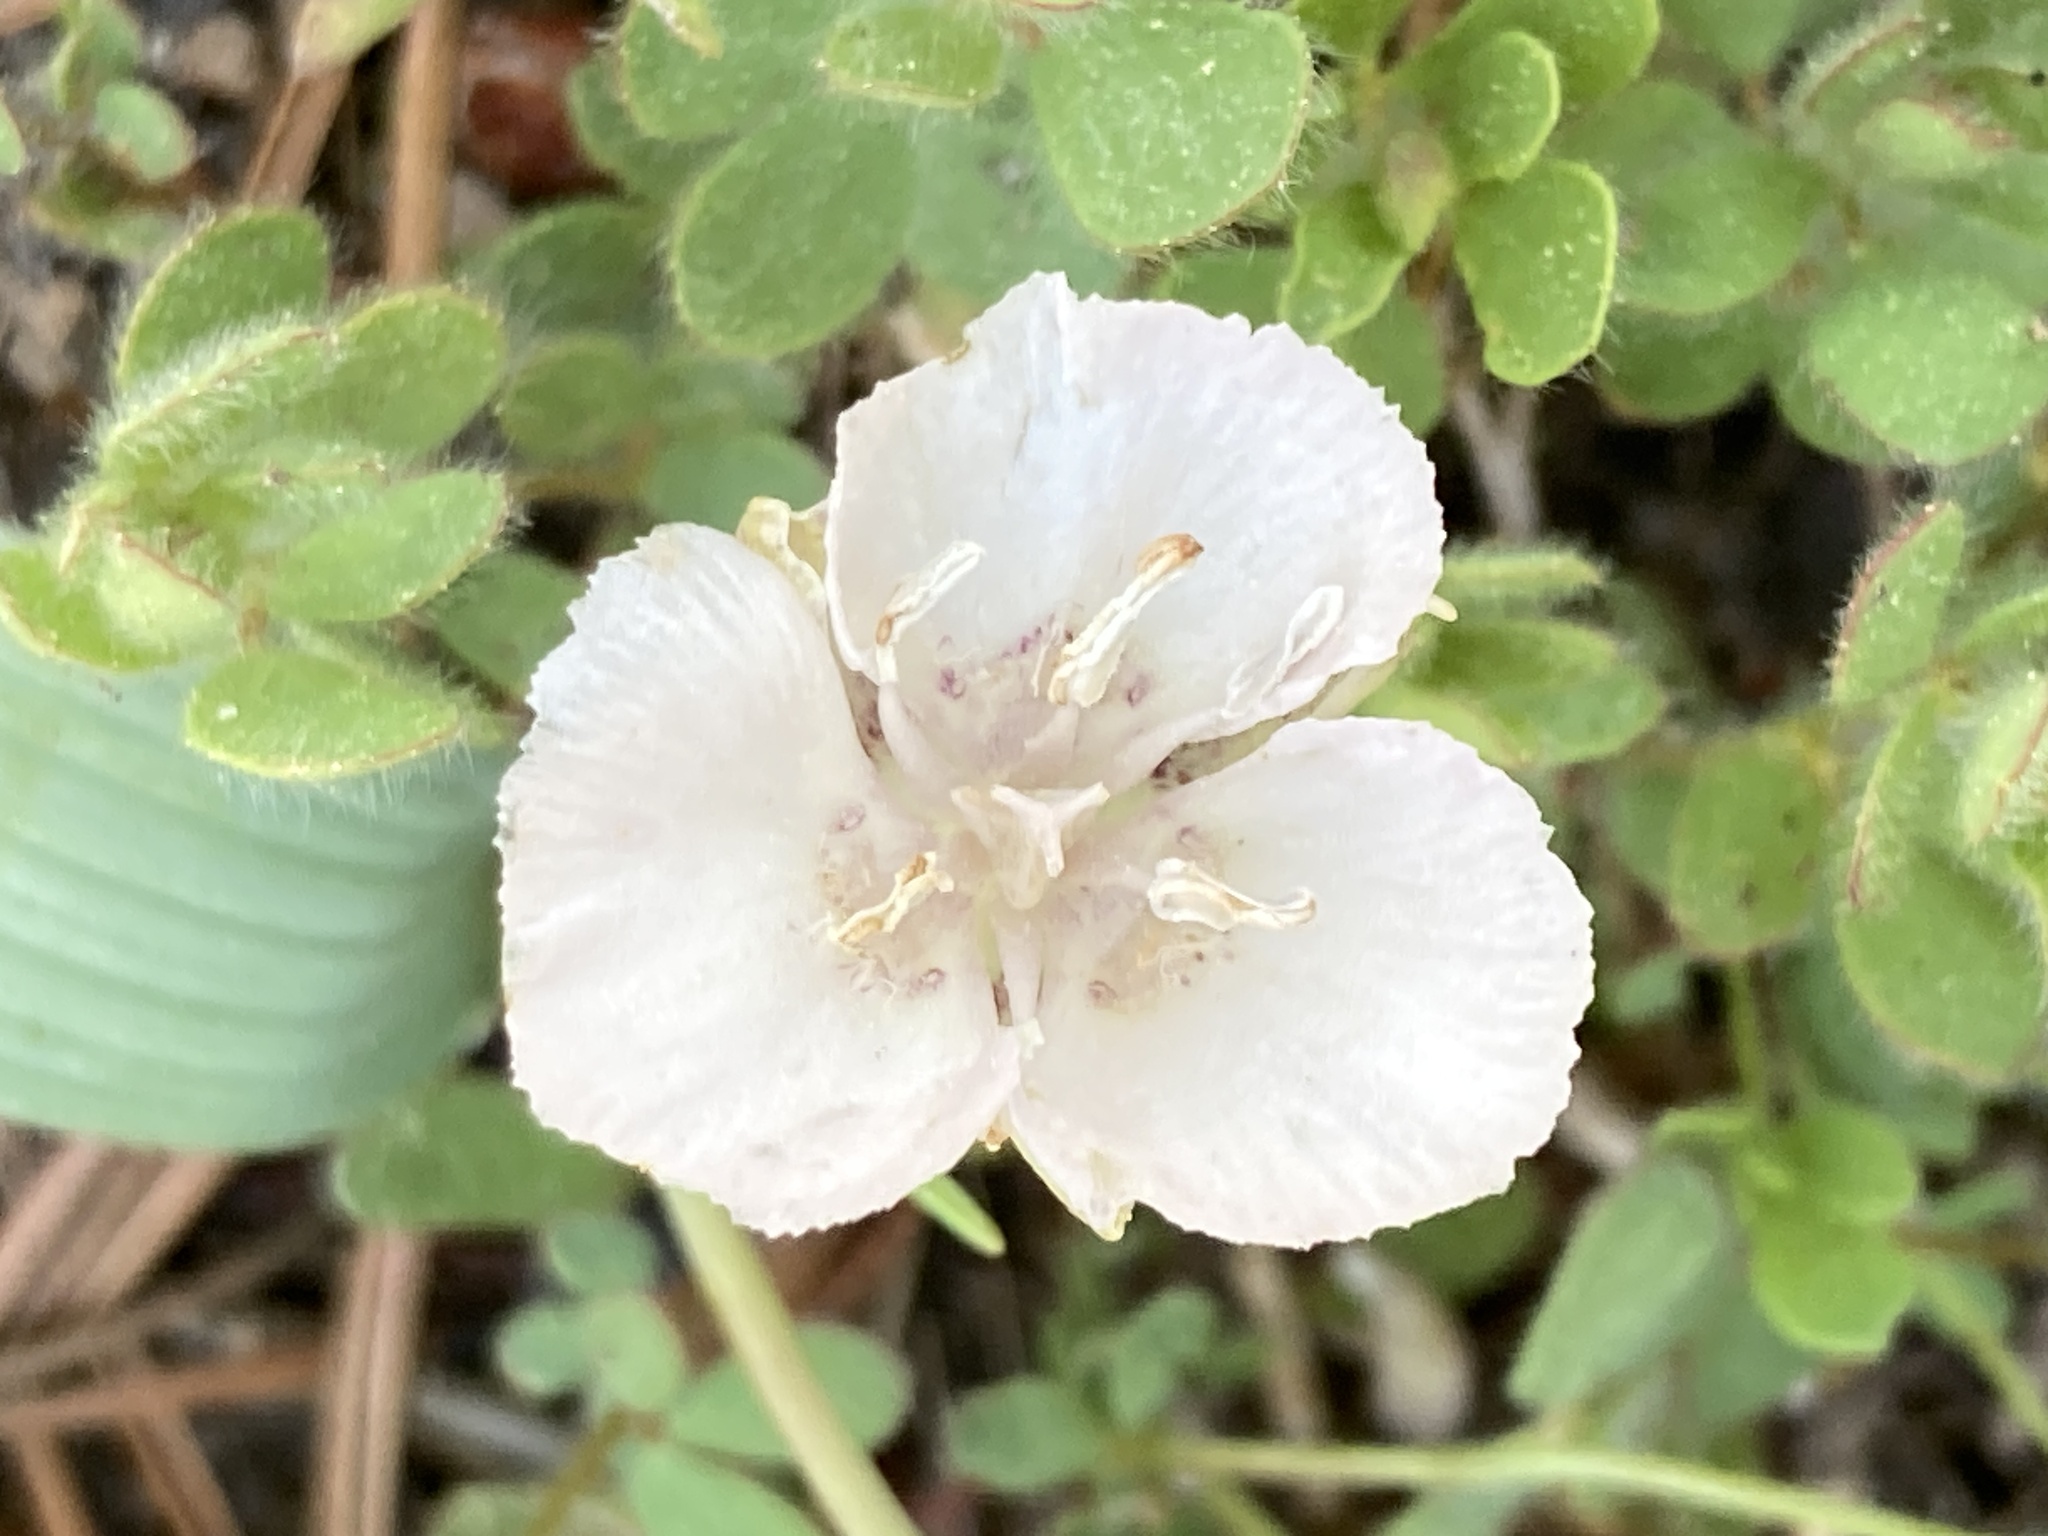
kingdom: Plantae
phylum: Tracheophyta
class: Liliopsida
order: Liliales
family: Liliaceae
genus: Calochortus
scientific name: Calochortus minimus
